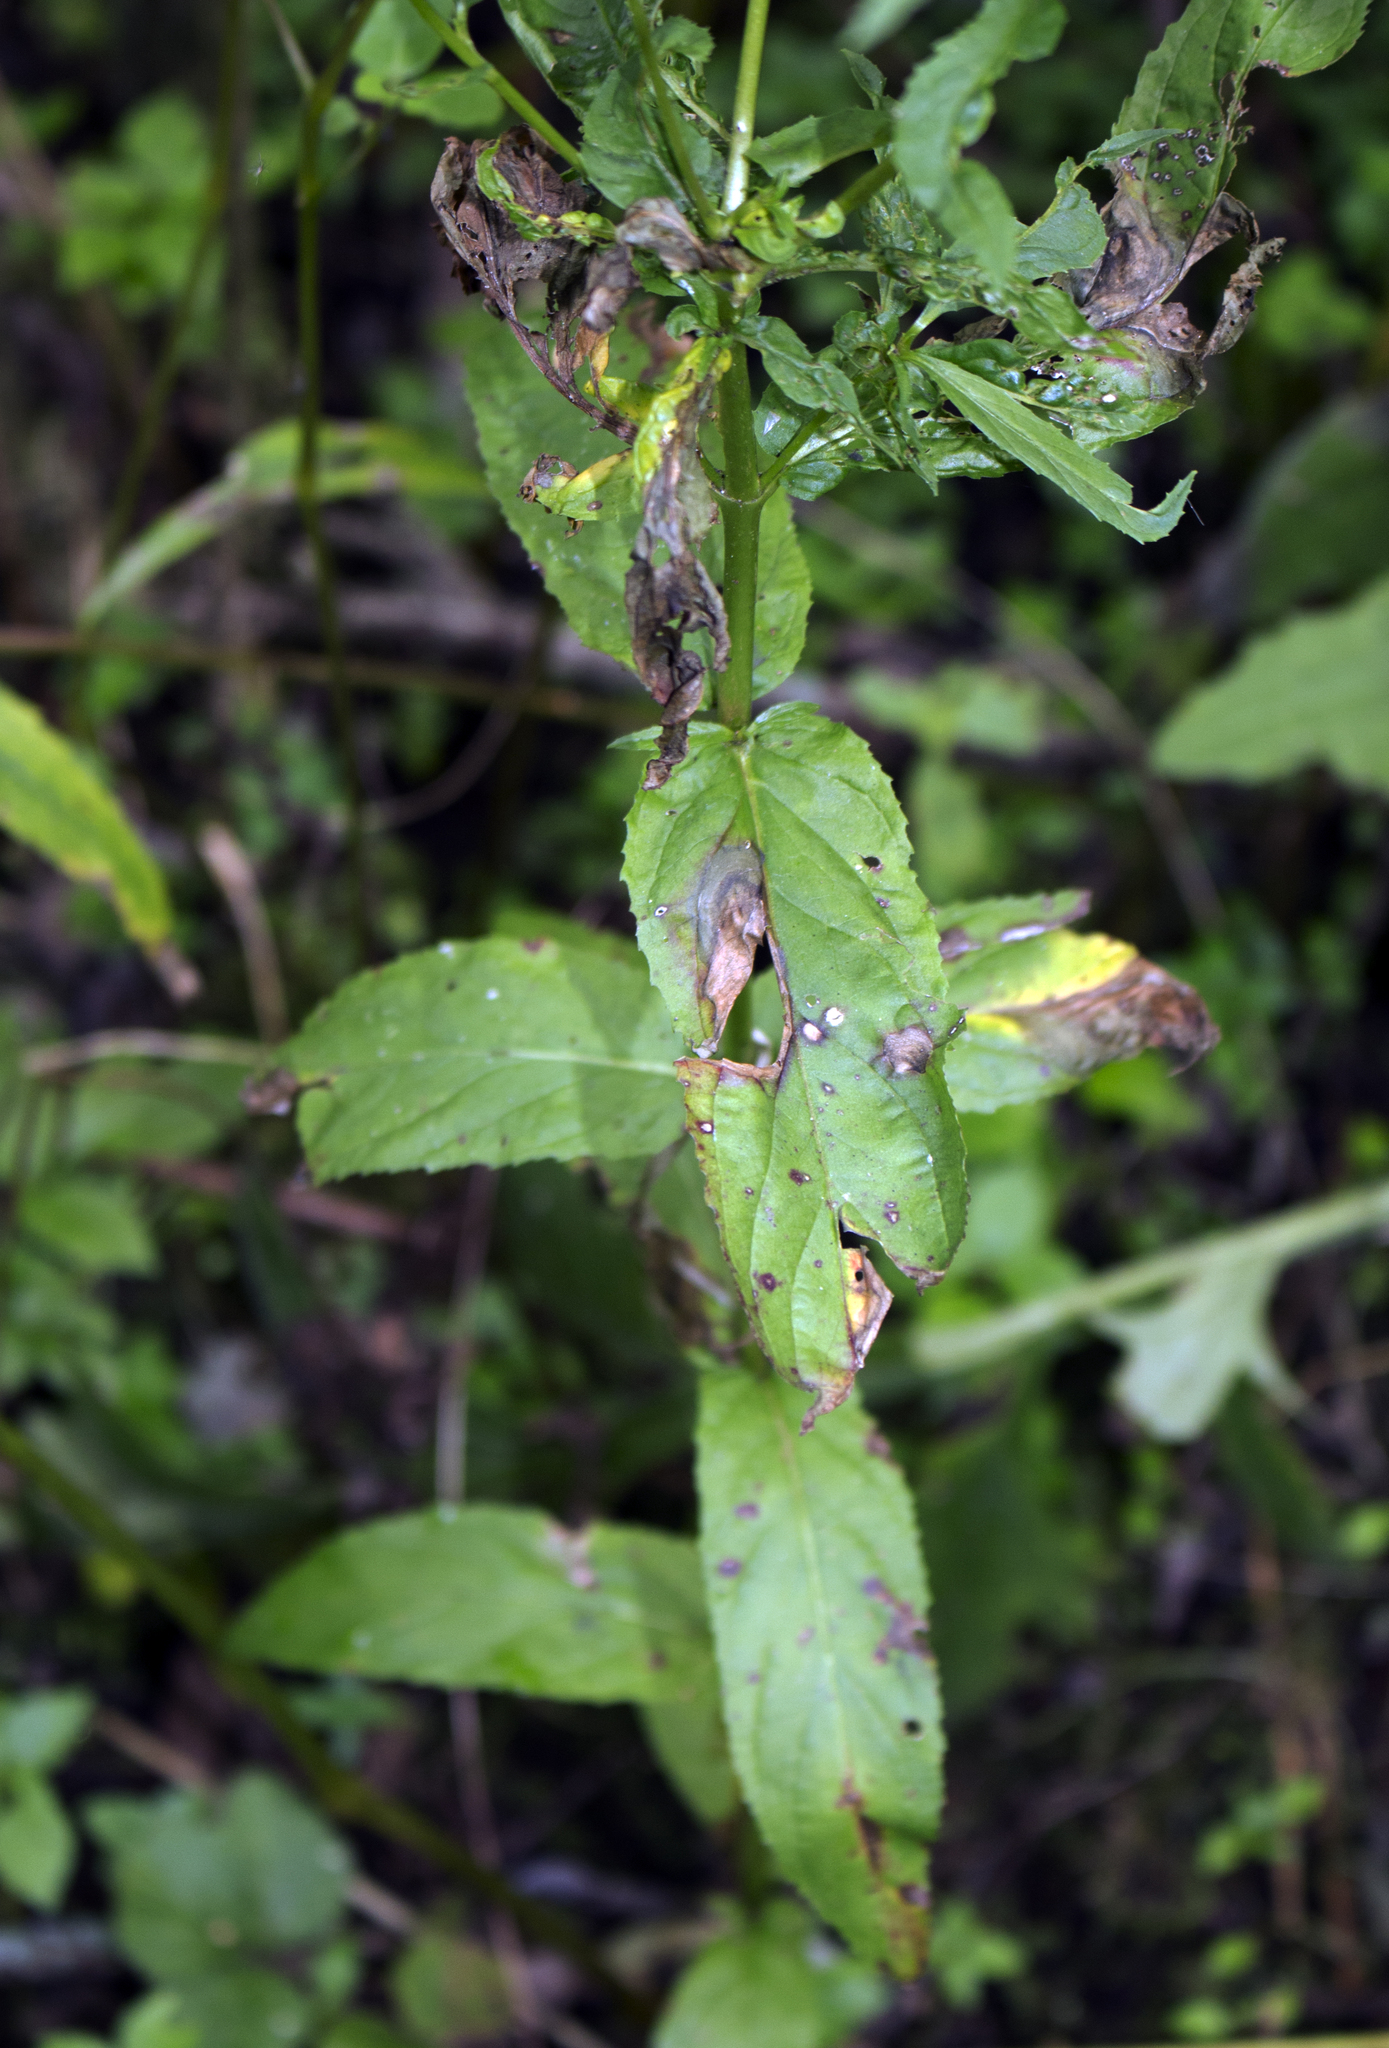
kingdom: Plantae
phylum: Tracheophyta
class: Magnoliopsida
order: Myrtales
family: Onagraceae
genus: Epilobium
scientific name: Epilobium coloratum
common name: Bronze willowherb
